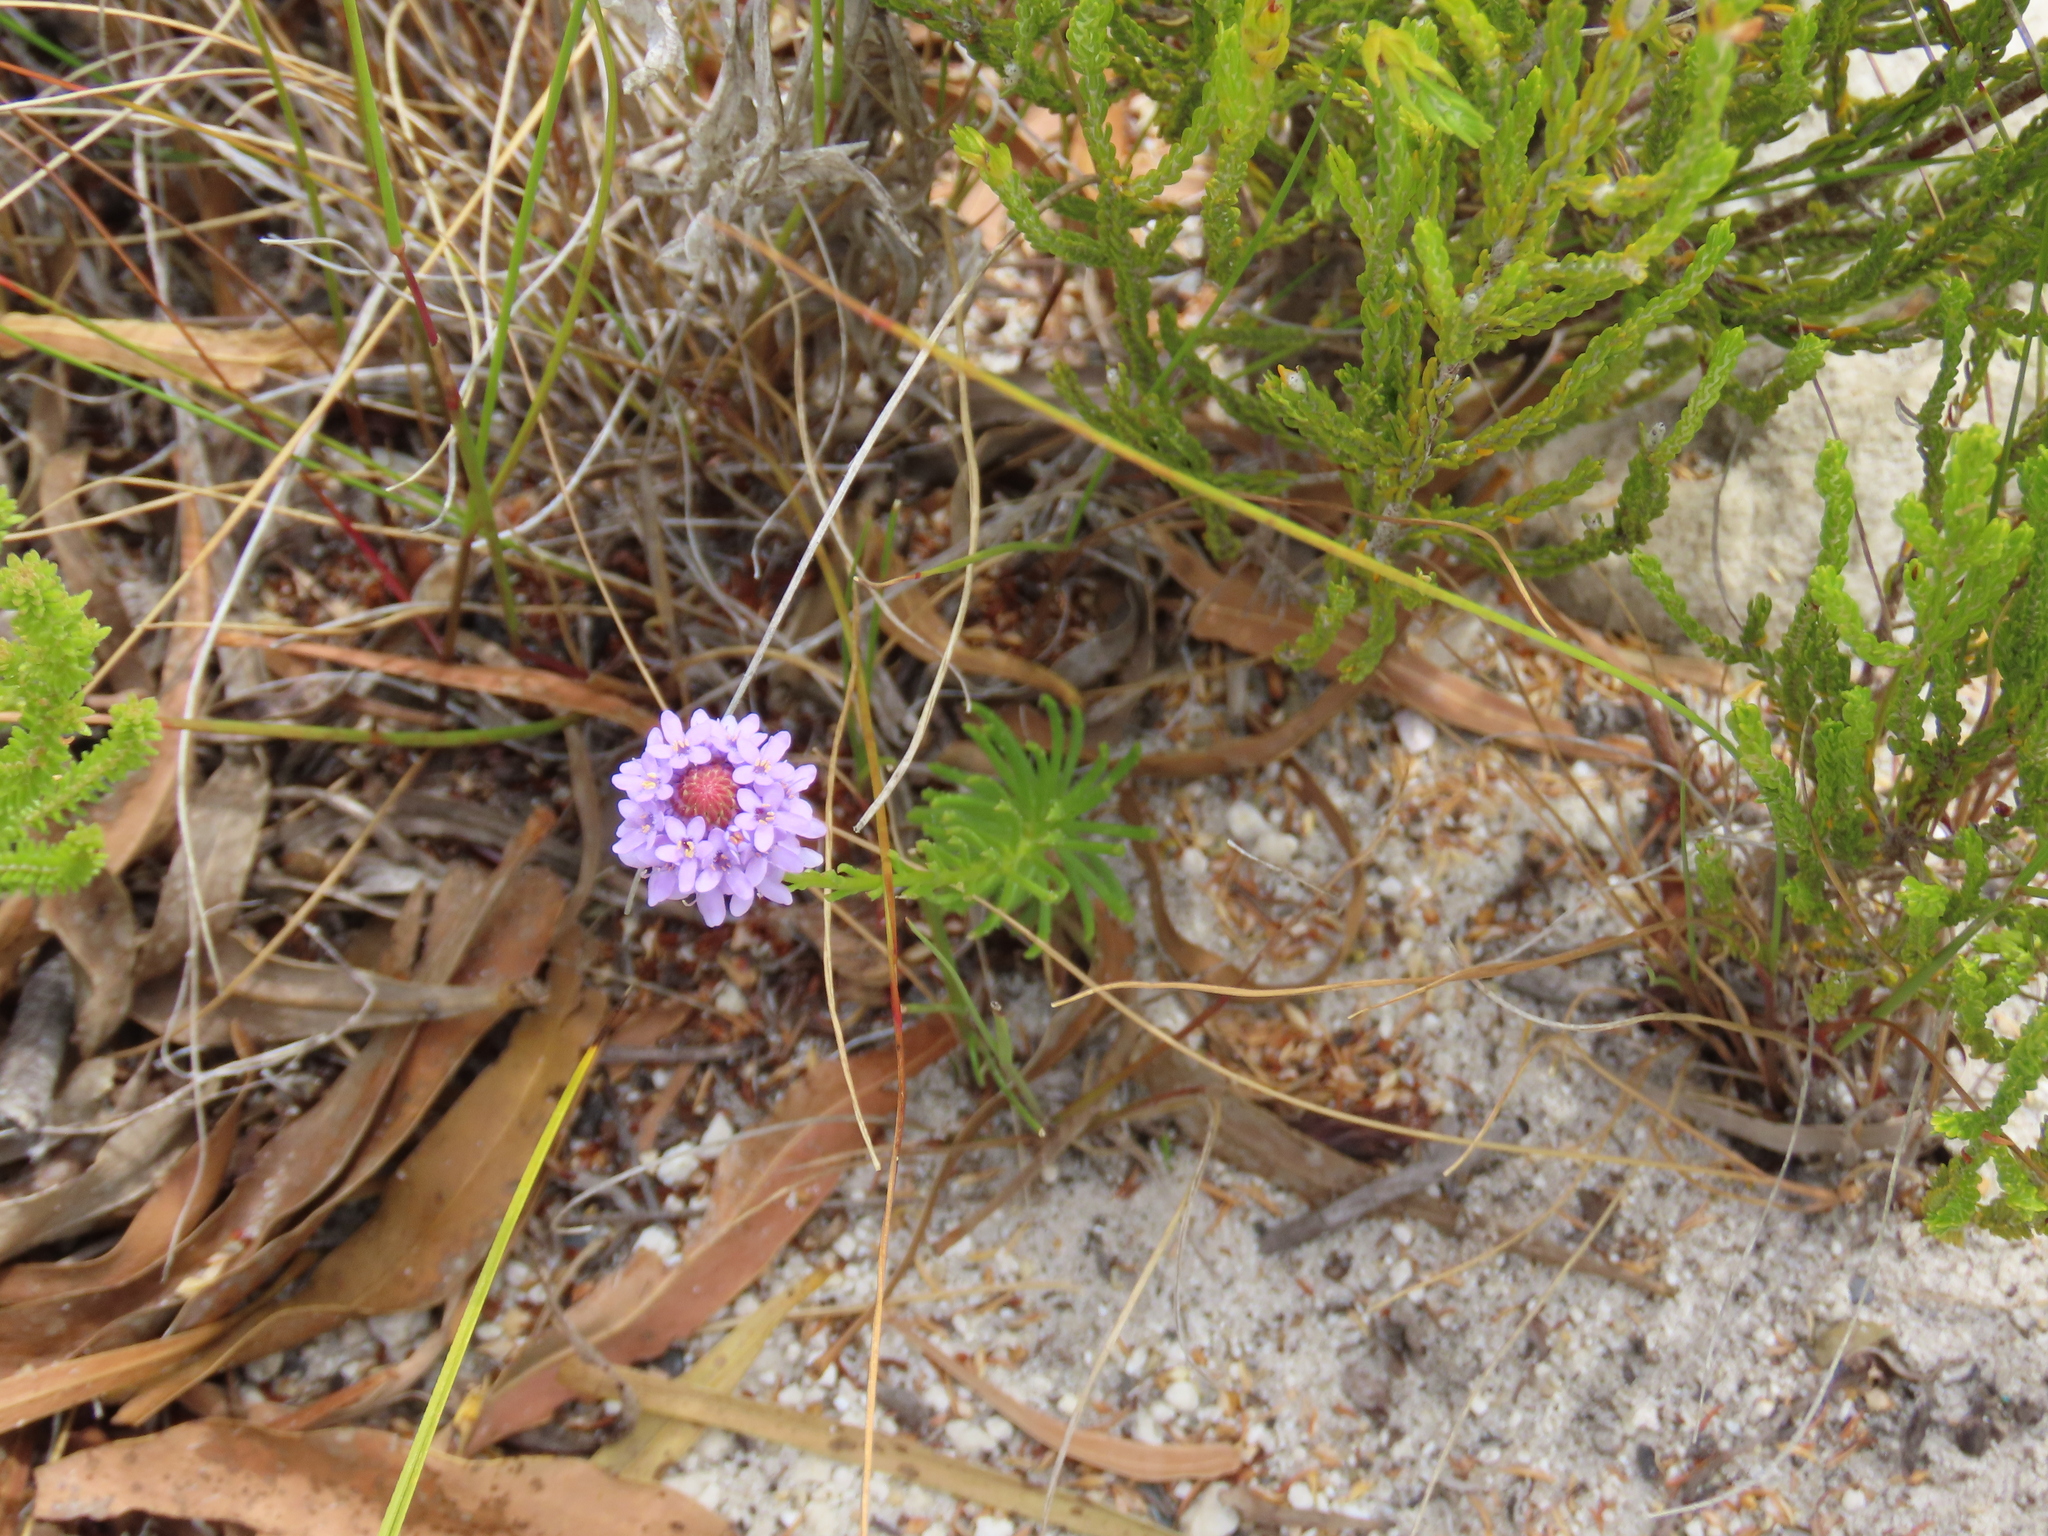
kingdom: Plantae
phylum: Tracheophyta
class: Magnoliopsida
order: Lamiales
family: Scrophulariaceae
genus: Pseudoselago
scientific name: Pseudoselago spuria
